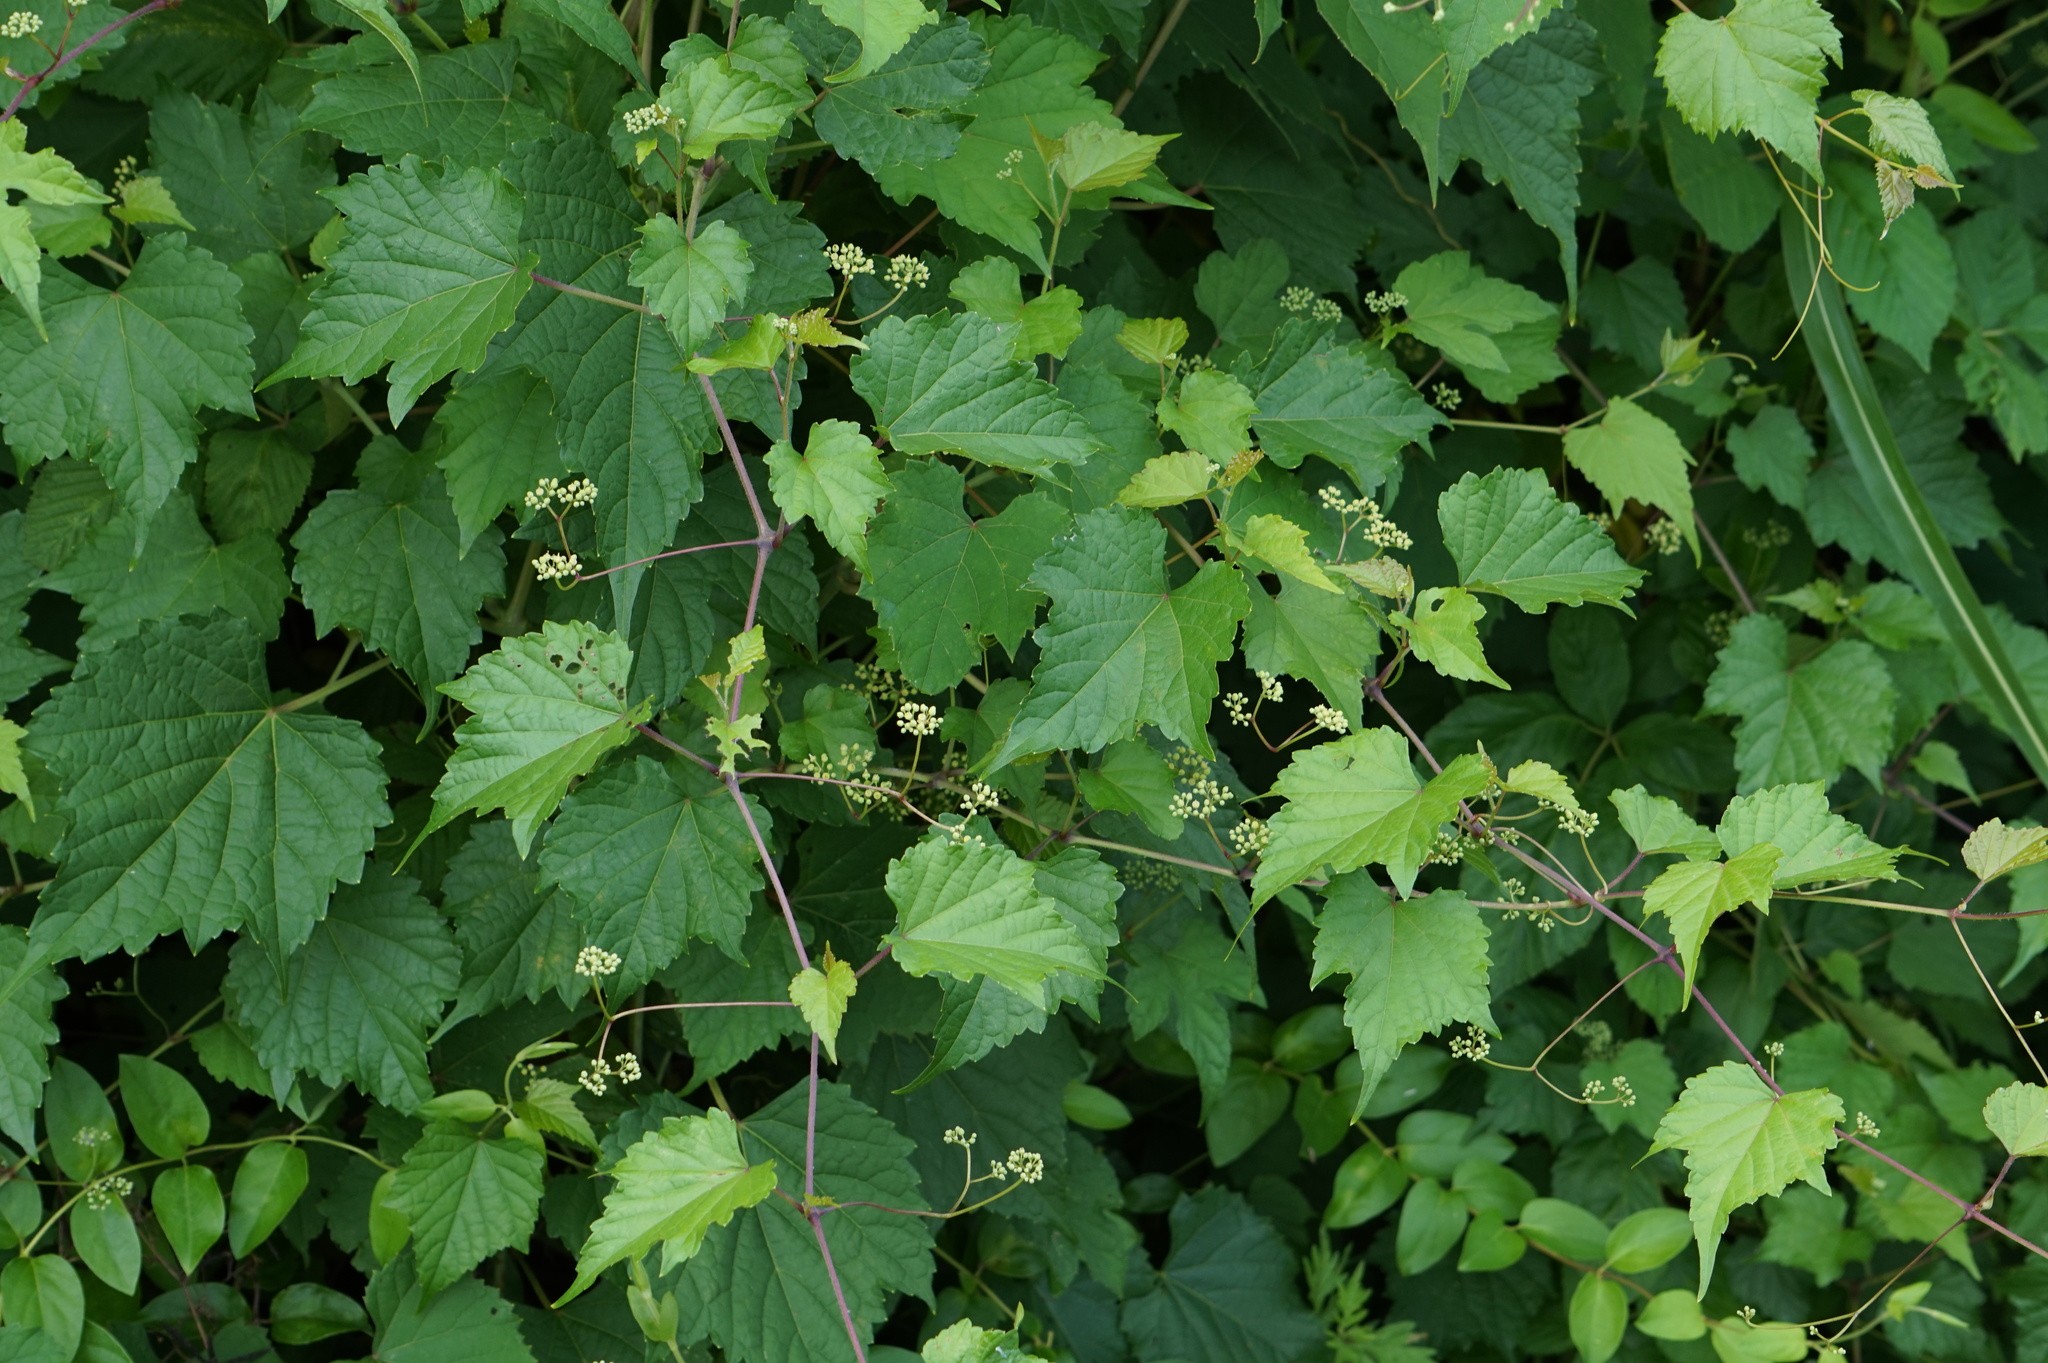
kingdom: Plantae
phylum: Tracheophyta
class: Magnoliopsida
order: Vitales
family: Vitaceae
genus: Ampelopsis
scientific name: Ampelopsis glandulosa
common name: Amur peppervine
